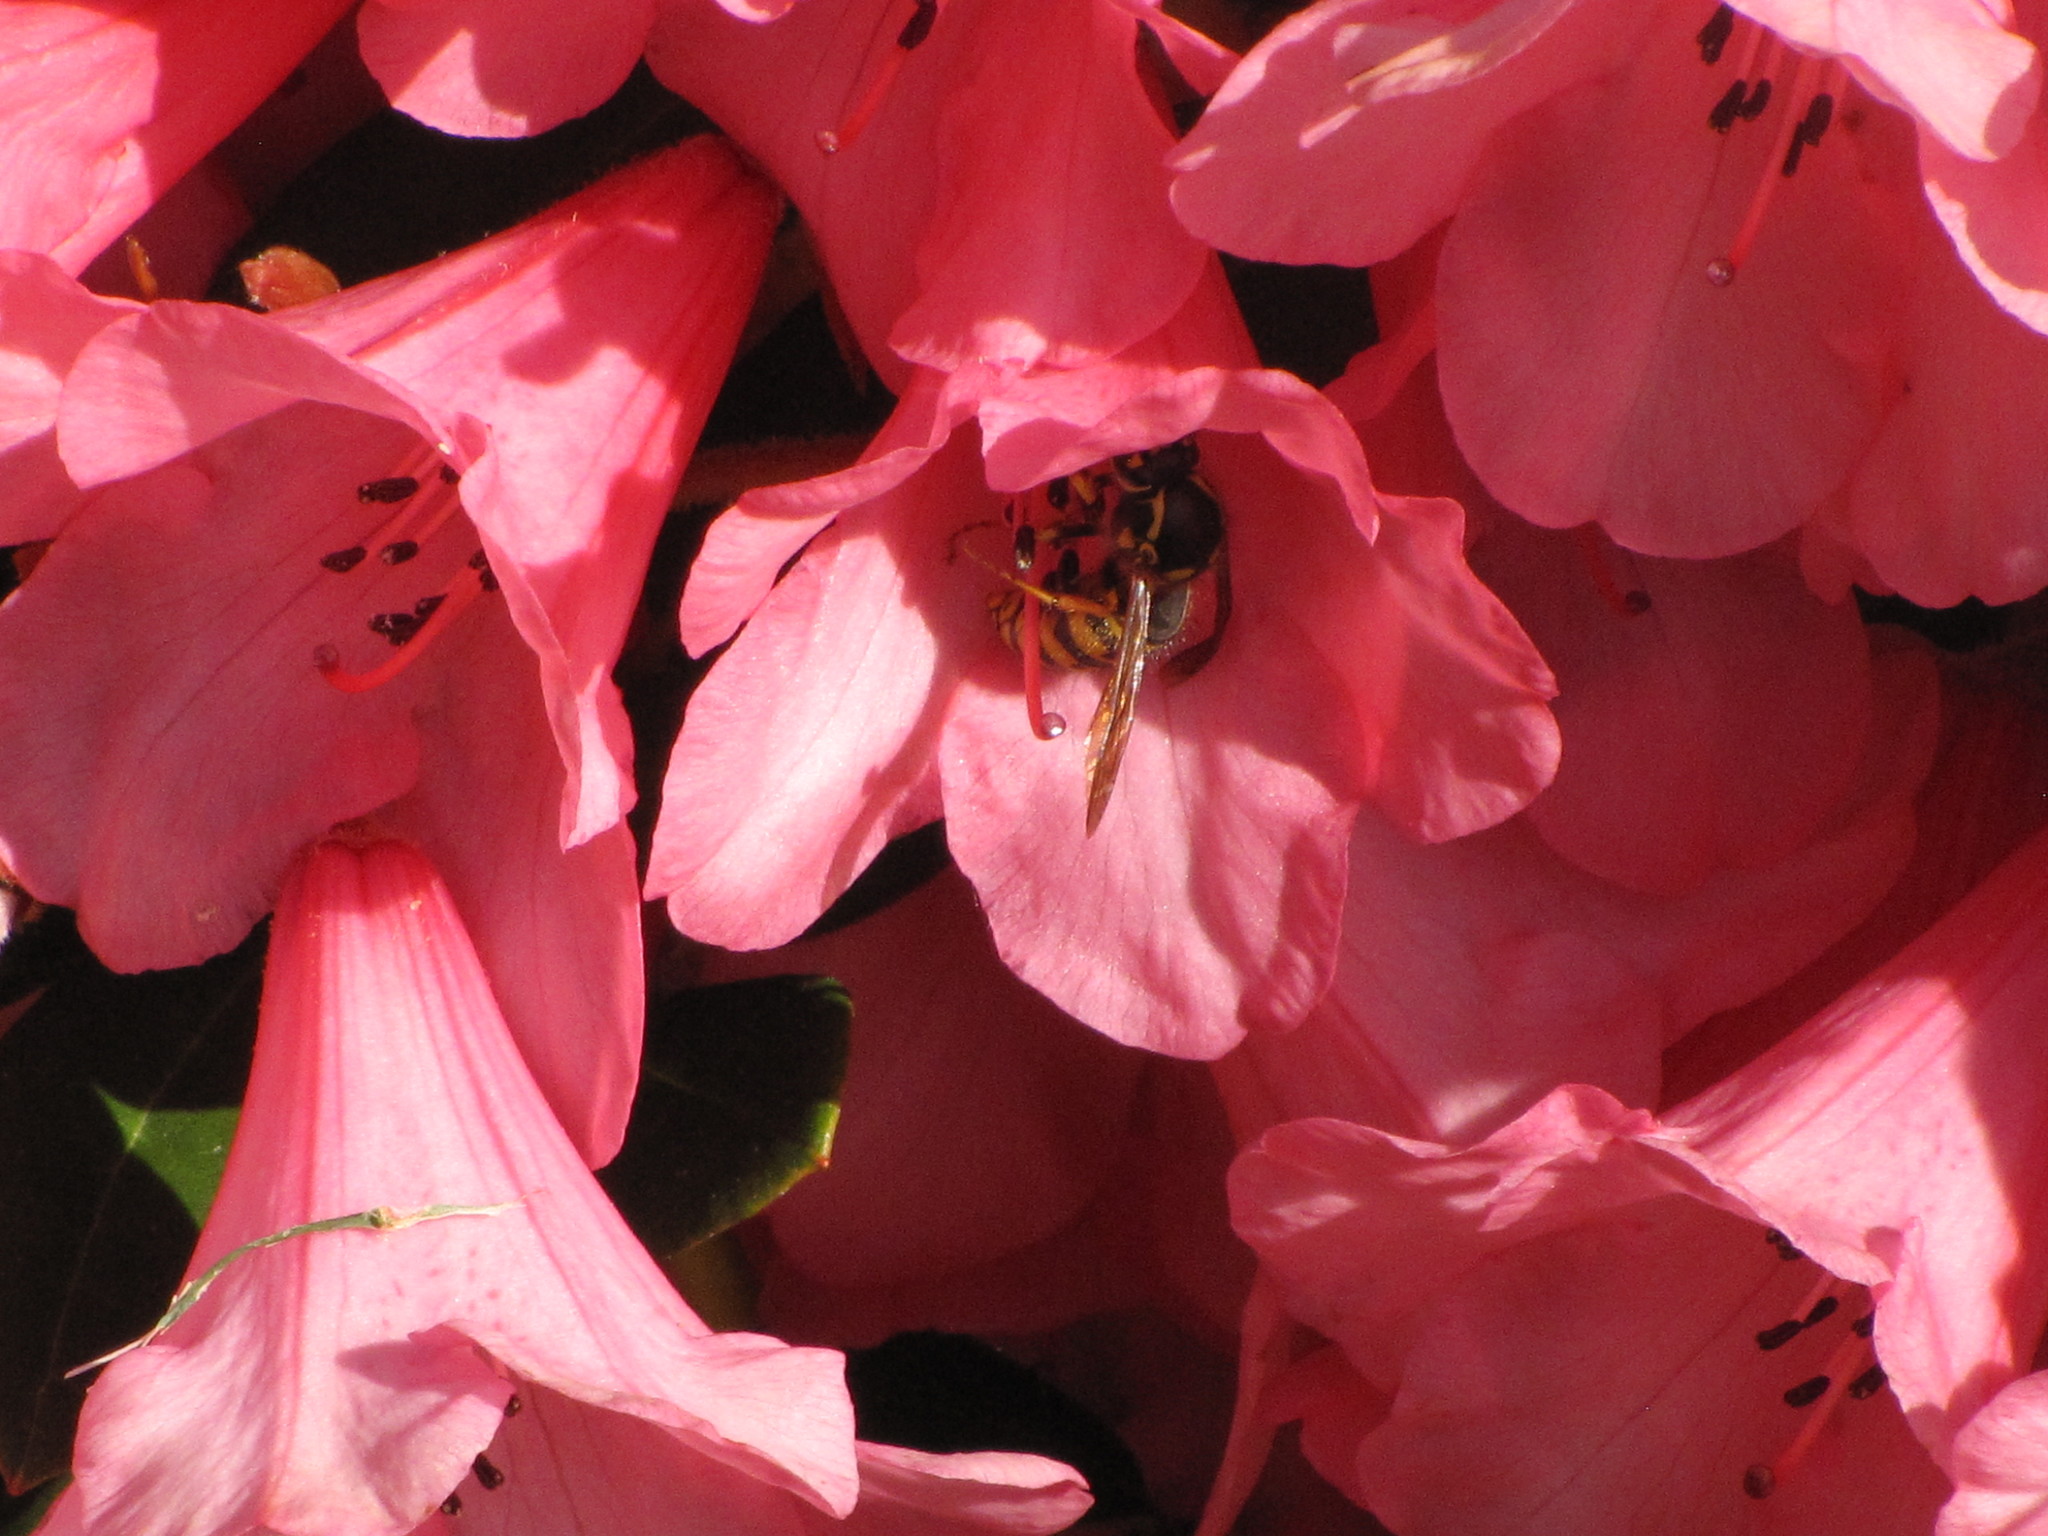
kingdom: Animalia
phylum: Arthropoda
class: Insecta
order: Hymenoptera
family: Vespidae
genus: Vespula
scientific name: Vespula pensylvanica
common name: Western yellowjacket
